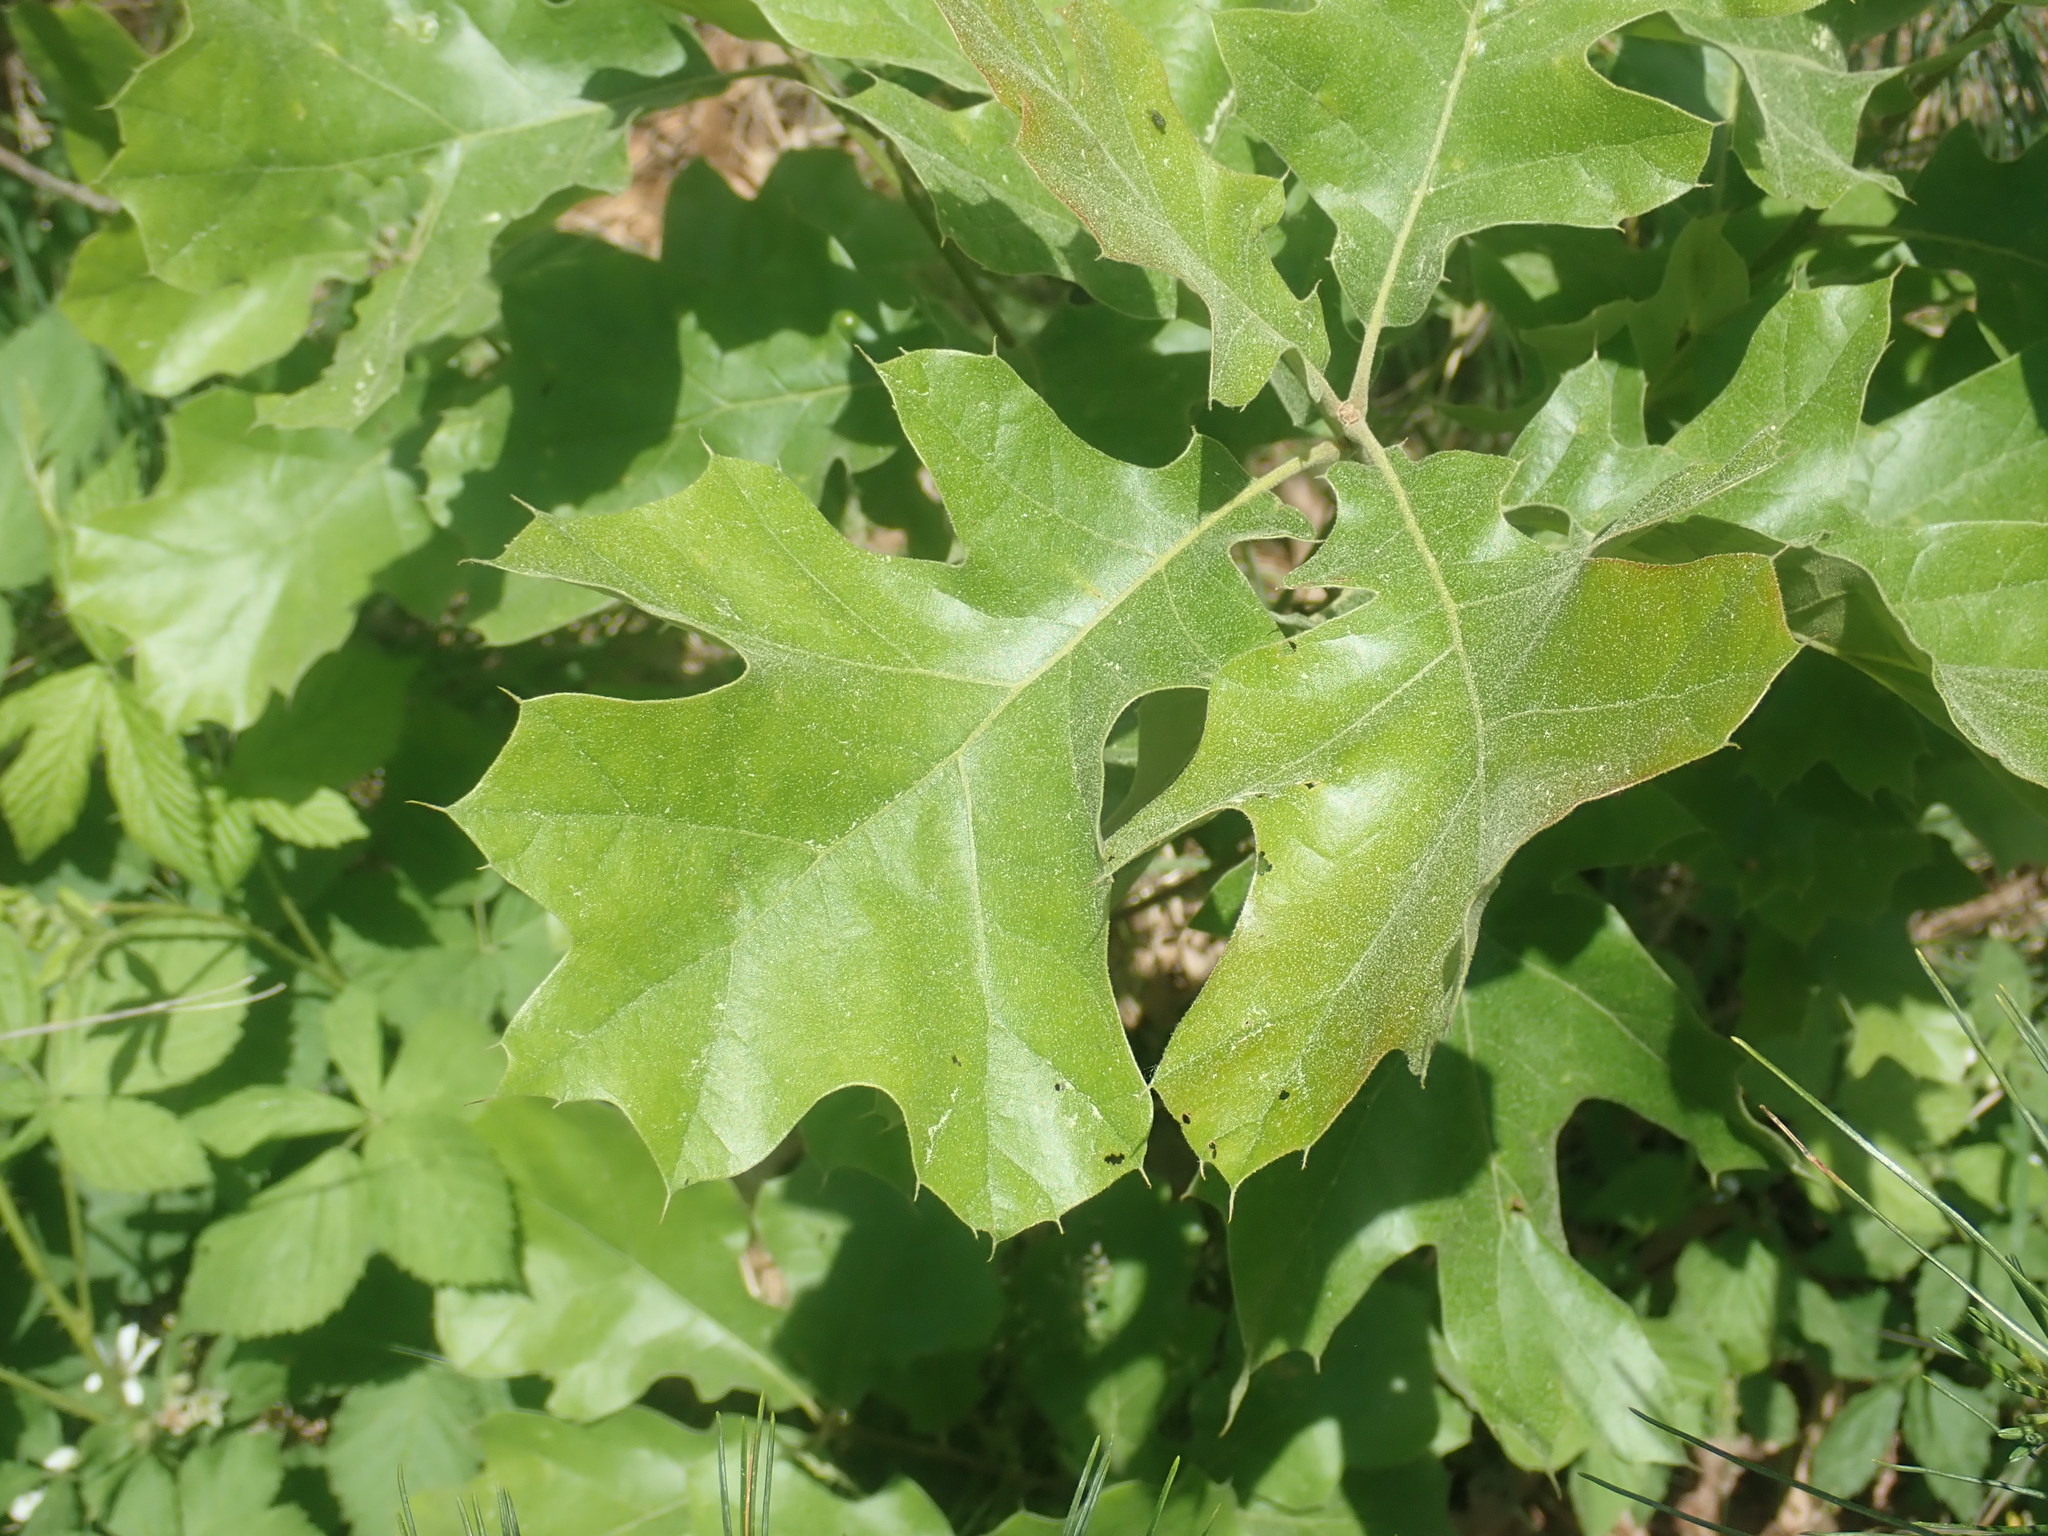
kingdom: Plantae
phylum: Tracheophyta
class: Magnoliopsida
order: Fagales
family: Fagaceae
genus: Quercus
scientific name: Quercus velutina
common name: Black oak
